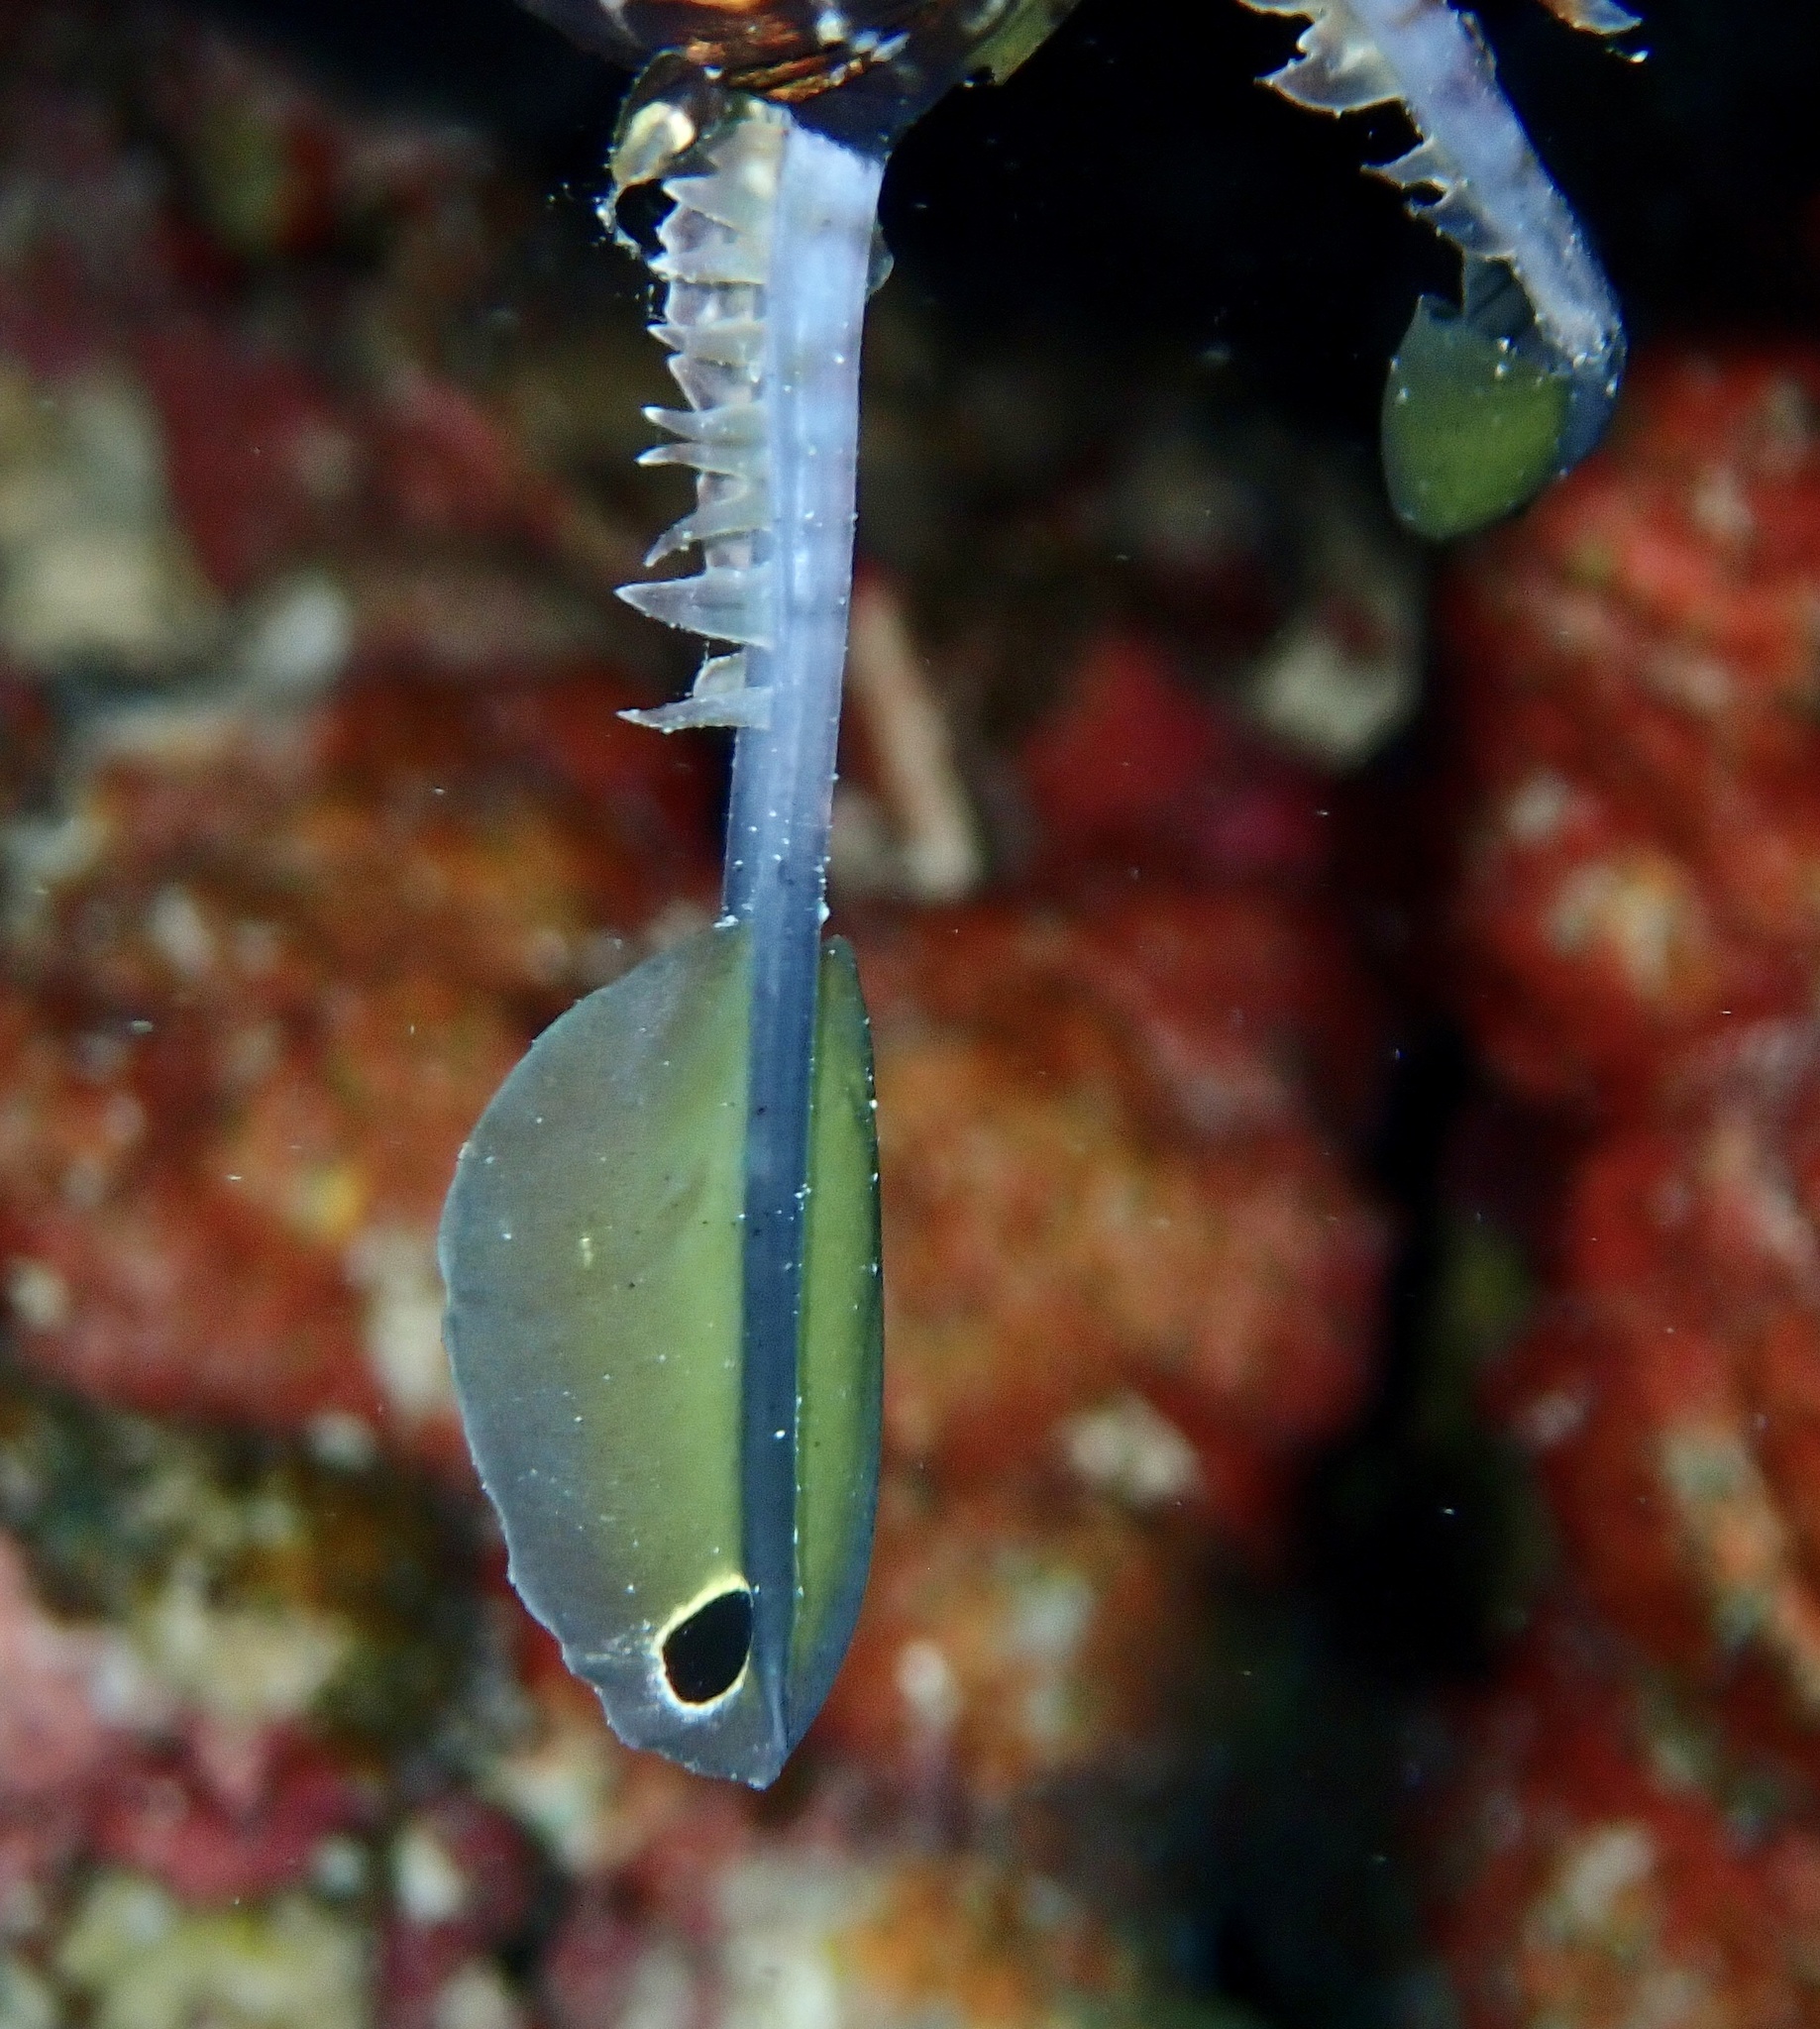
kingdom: Animalia
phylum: Chordata
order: Scorpaeniformes
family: Scorpaenidae
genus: Pterois
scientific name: Pterois miles
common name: Devil firefish
